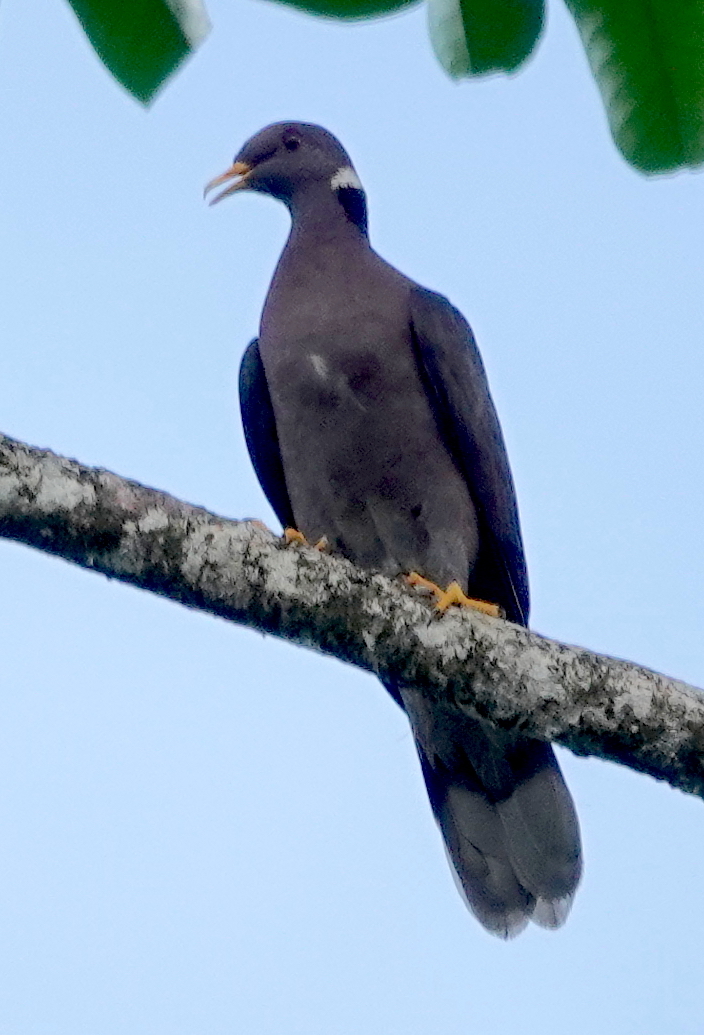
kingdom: Animalia
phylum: Chordata
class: Aves
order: Columbiformes
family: Columbidae
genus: Patagioenas
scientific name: Patagioenas fasciata
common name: Band-tailed pigeon
